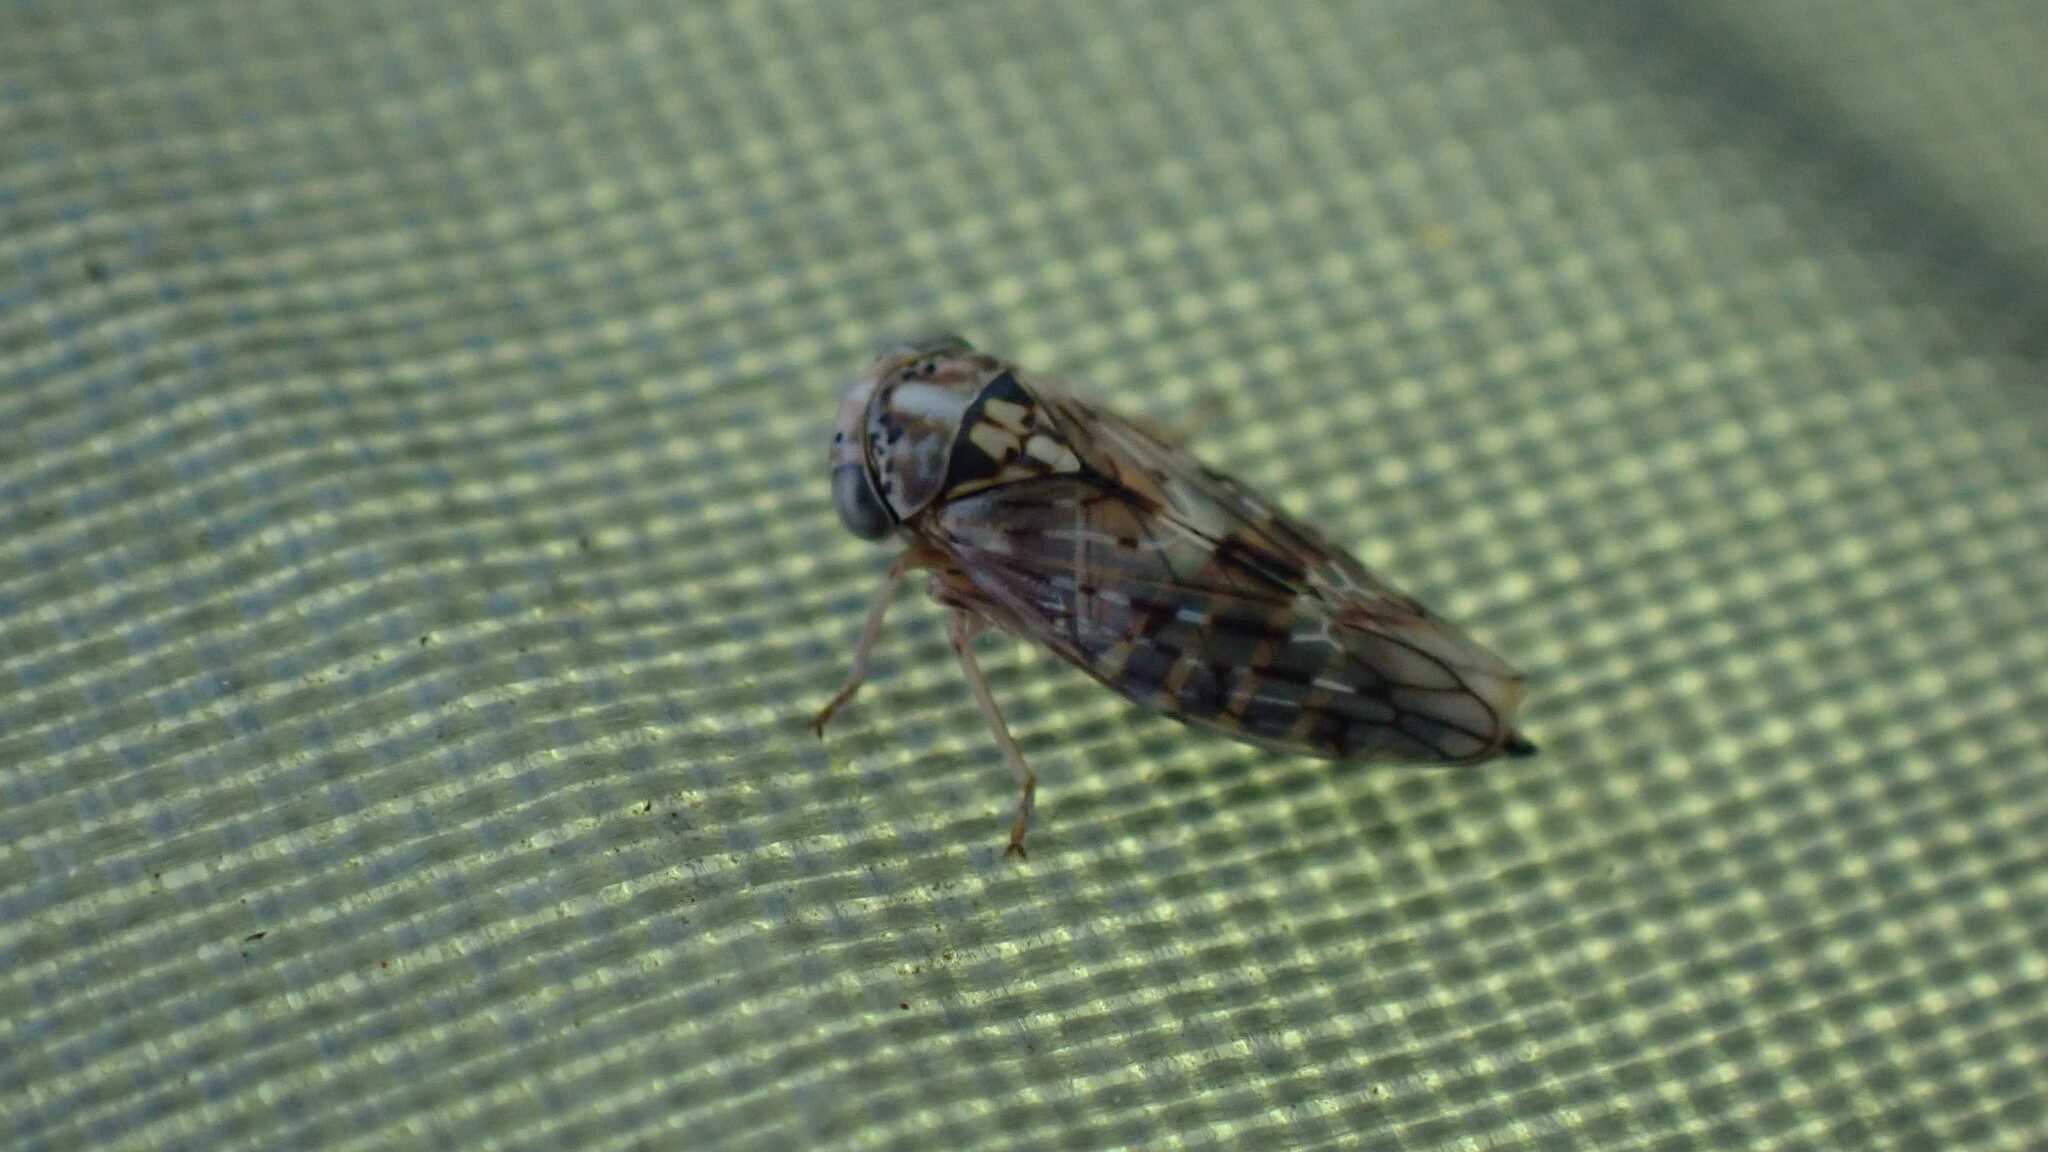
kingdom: Animalia
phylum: Arthropoda
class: Insecta
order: Hemiptera
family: Cicadellidae
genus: Metidiocerus
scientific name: Metidiocerus poecilus
